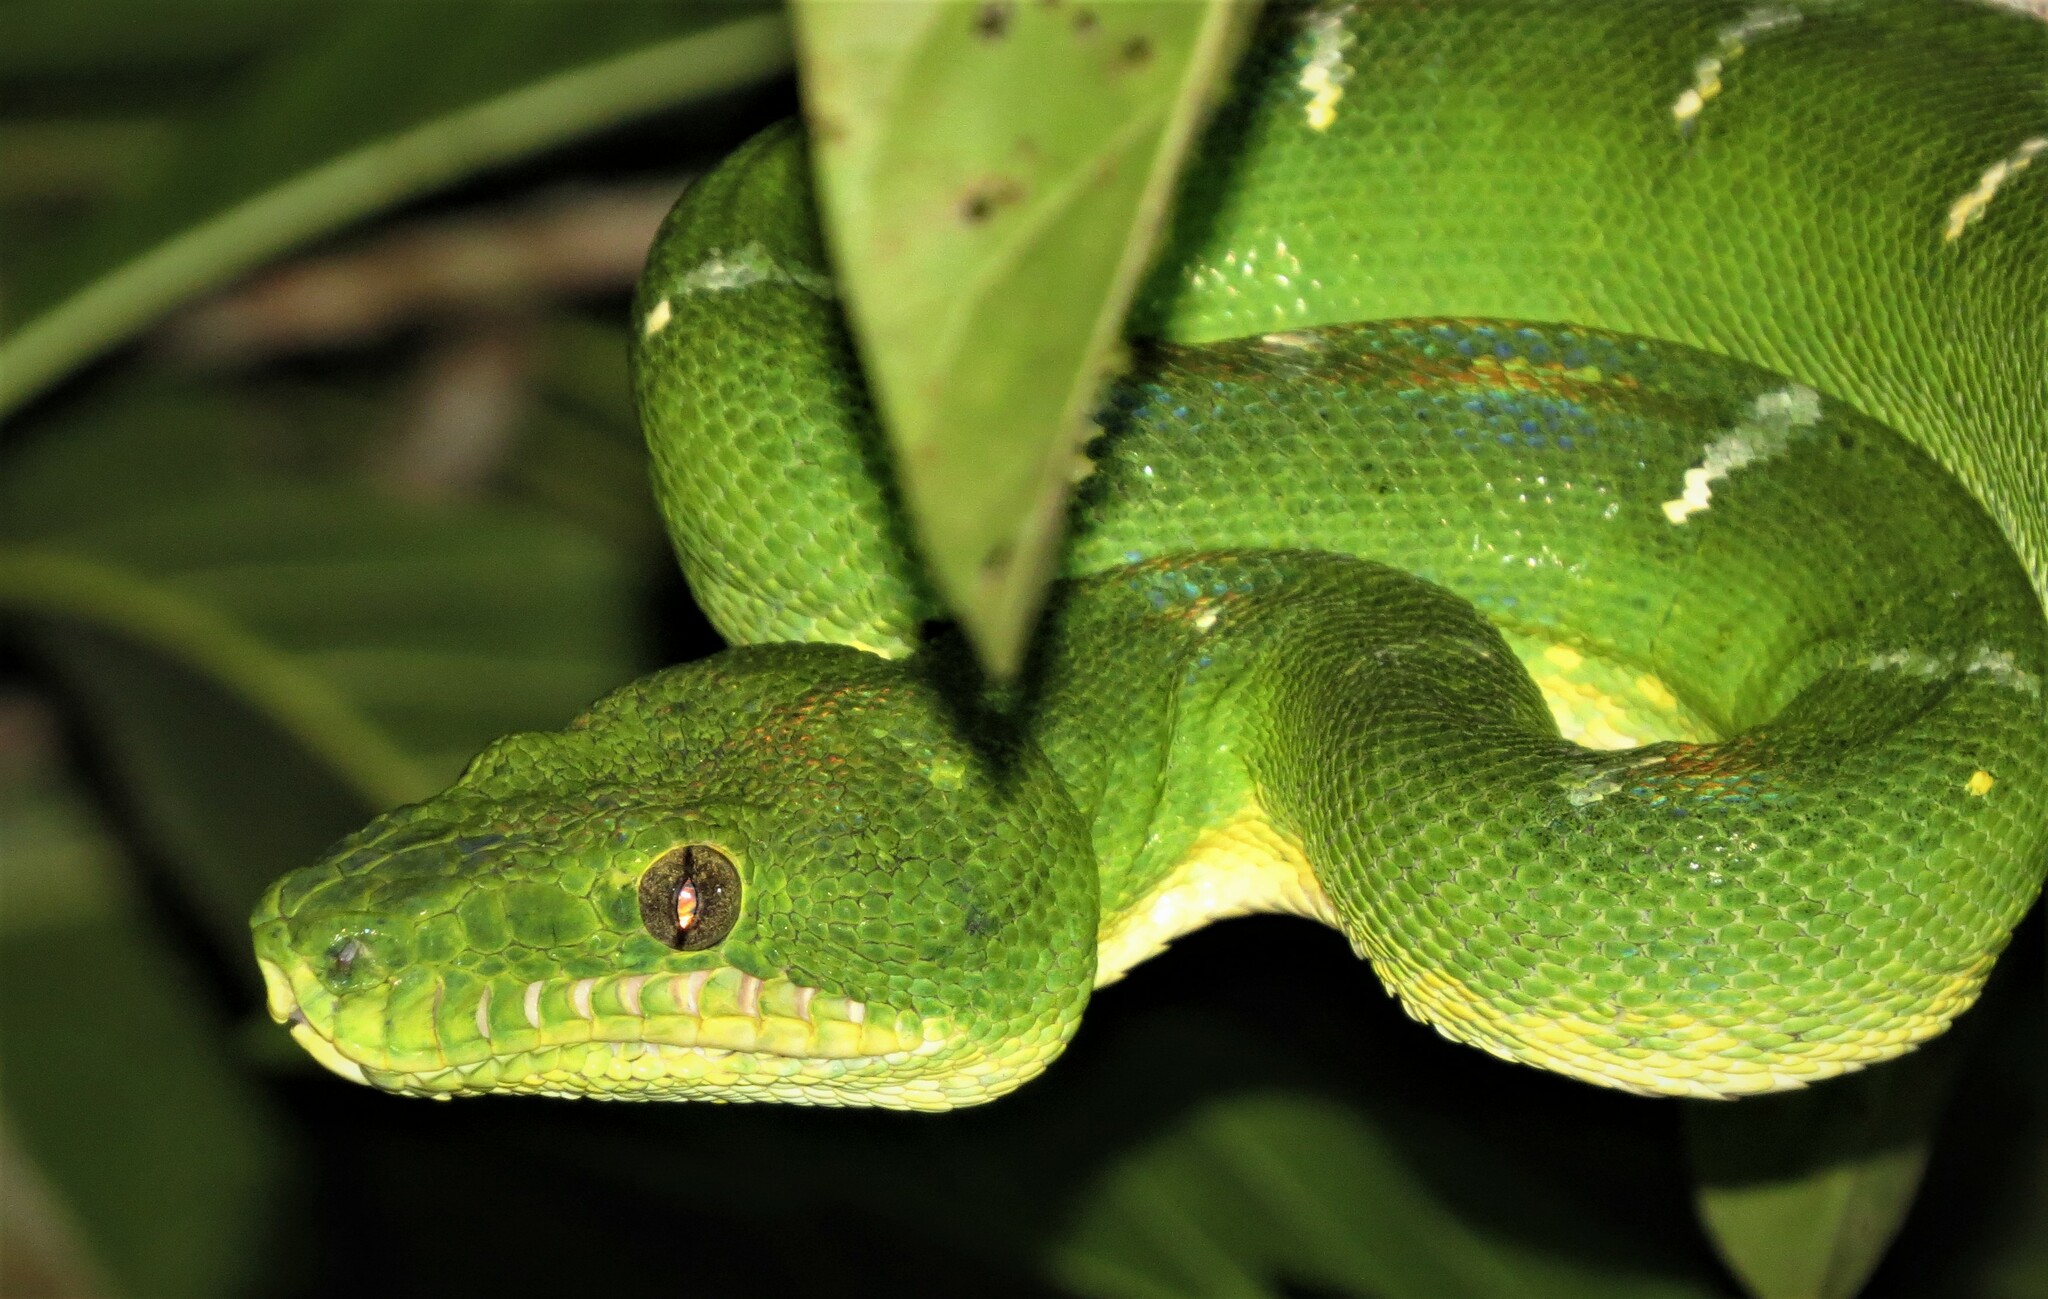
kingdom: Animalia
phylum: Chordata
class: Squamata
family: Boidae
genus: Corallus
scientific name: Corallus batesii
